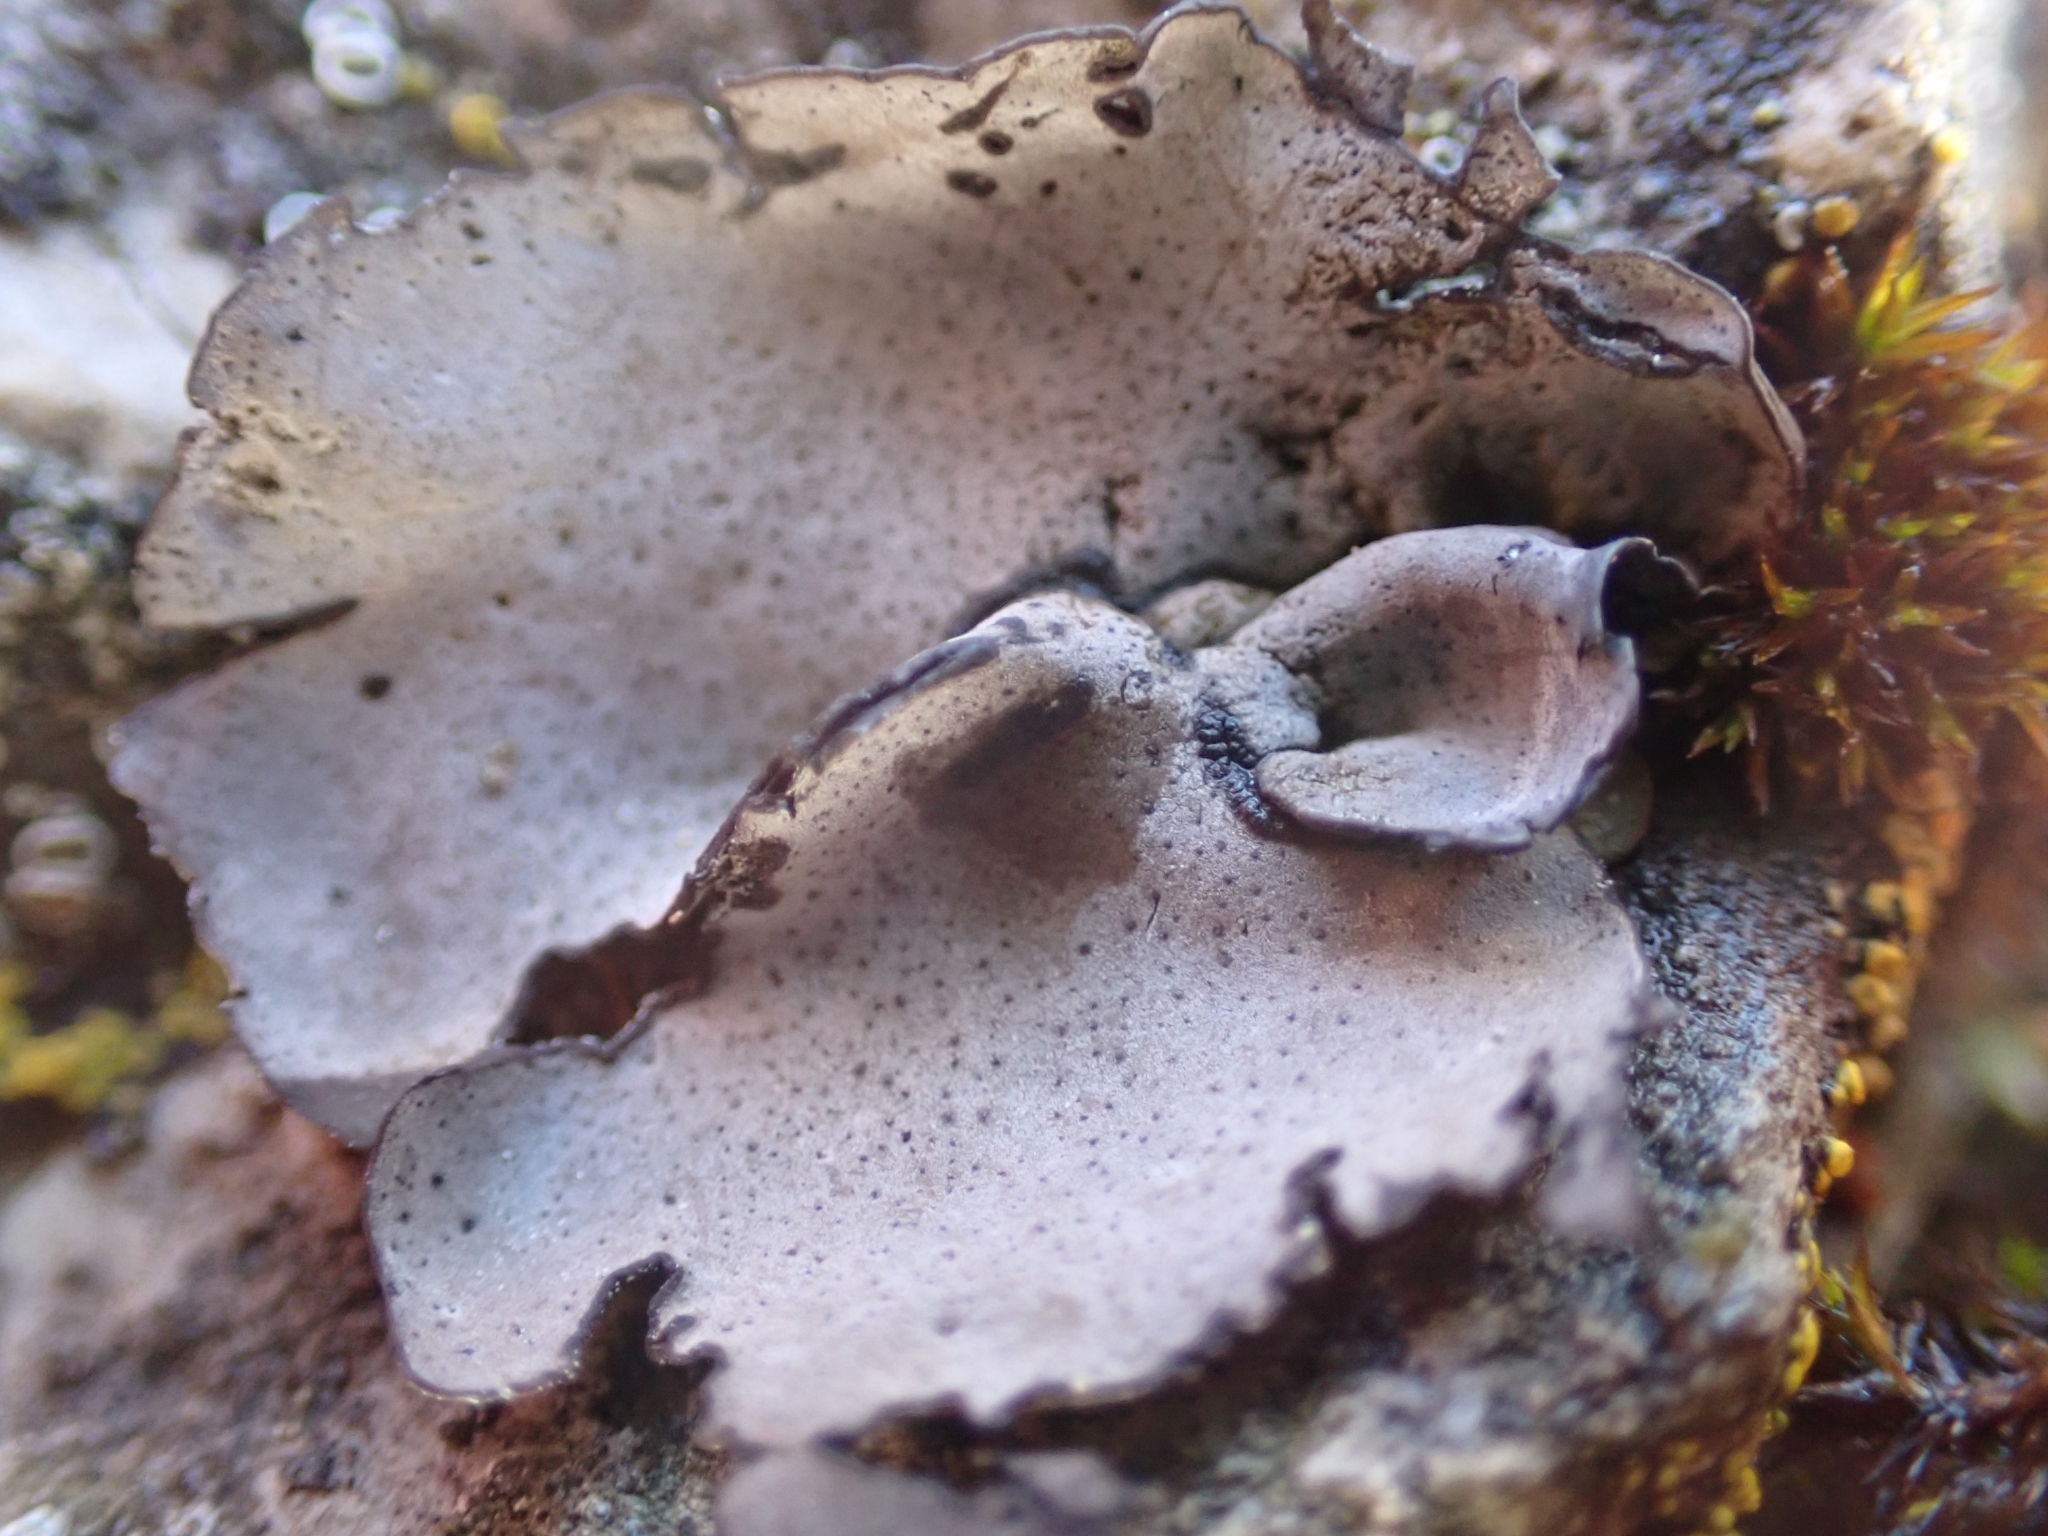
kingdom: Fungi
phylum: Ascomycota
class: Eurotiomycetes
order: Verrucariales
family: Verrucariaceae
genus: Dermatocarpon
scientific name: Dermatocarpon miniatum
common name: Leather lichen
